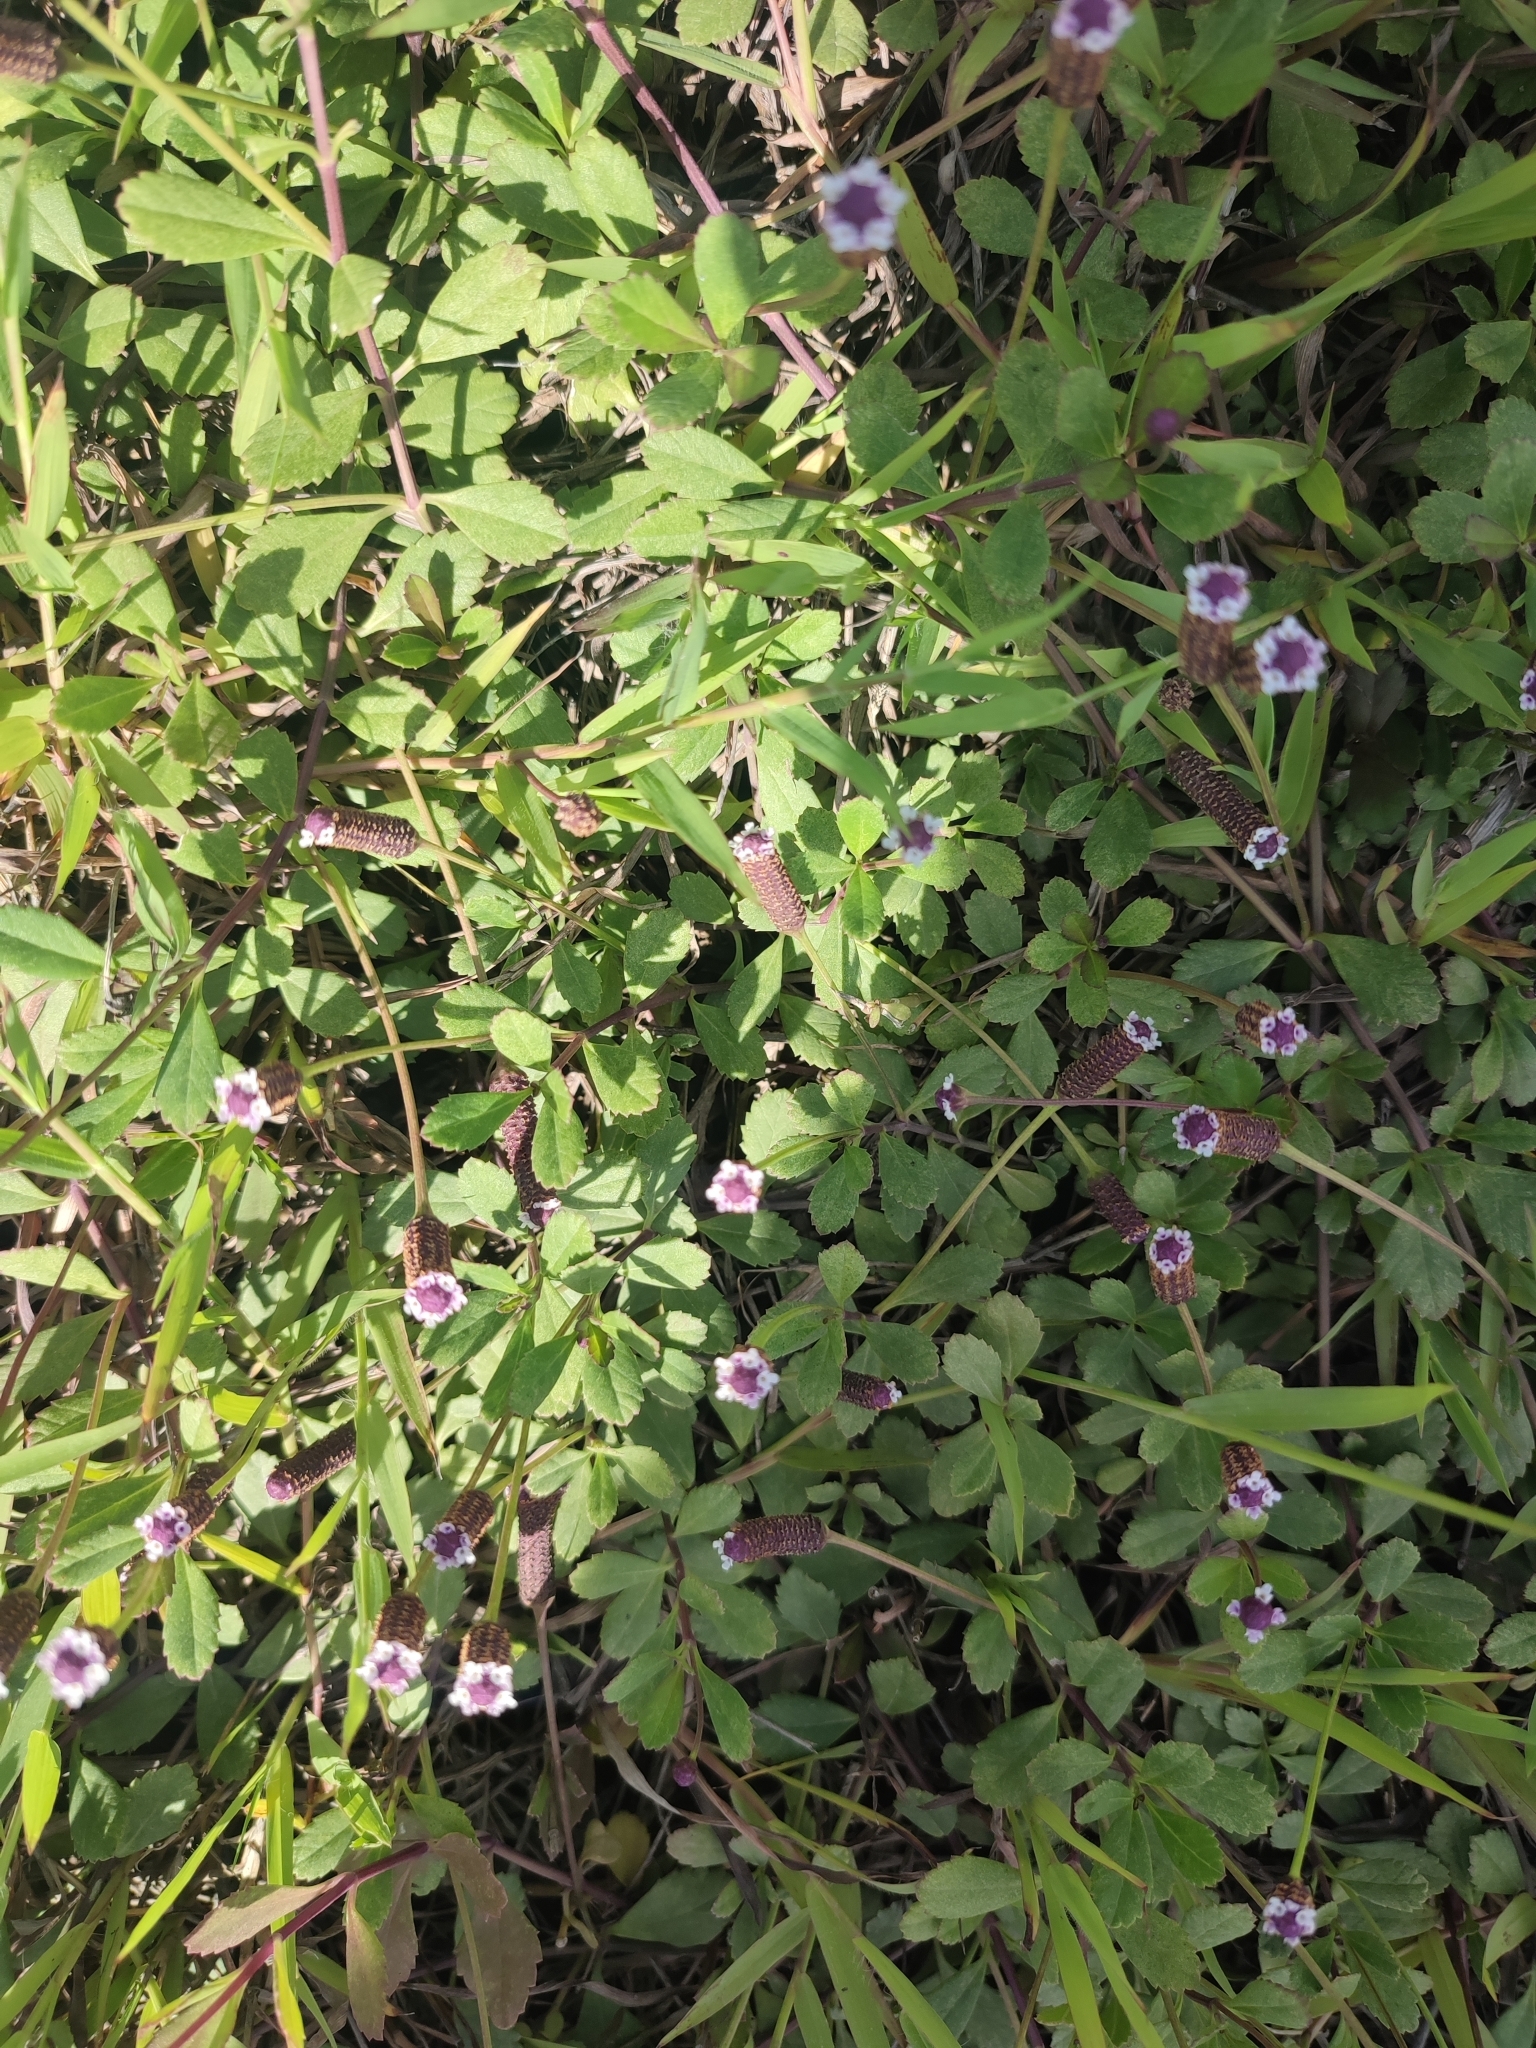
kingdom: Plantae
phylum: Tracheophyta
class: Magnoliopsida
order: Lamiales
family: Verbenaceae
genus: Phyla
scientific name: Phyla nodiflora
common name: Frogfruit
